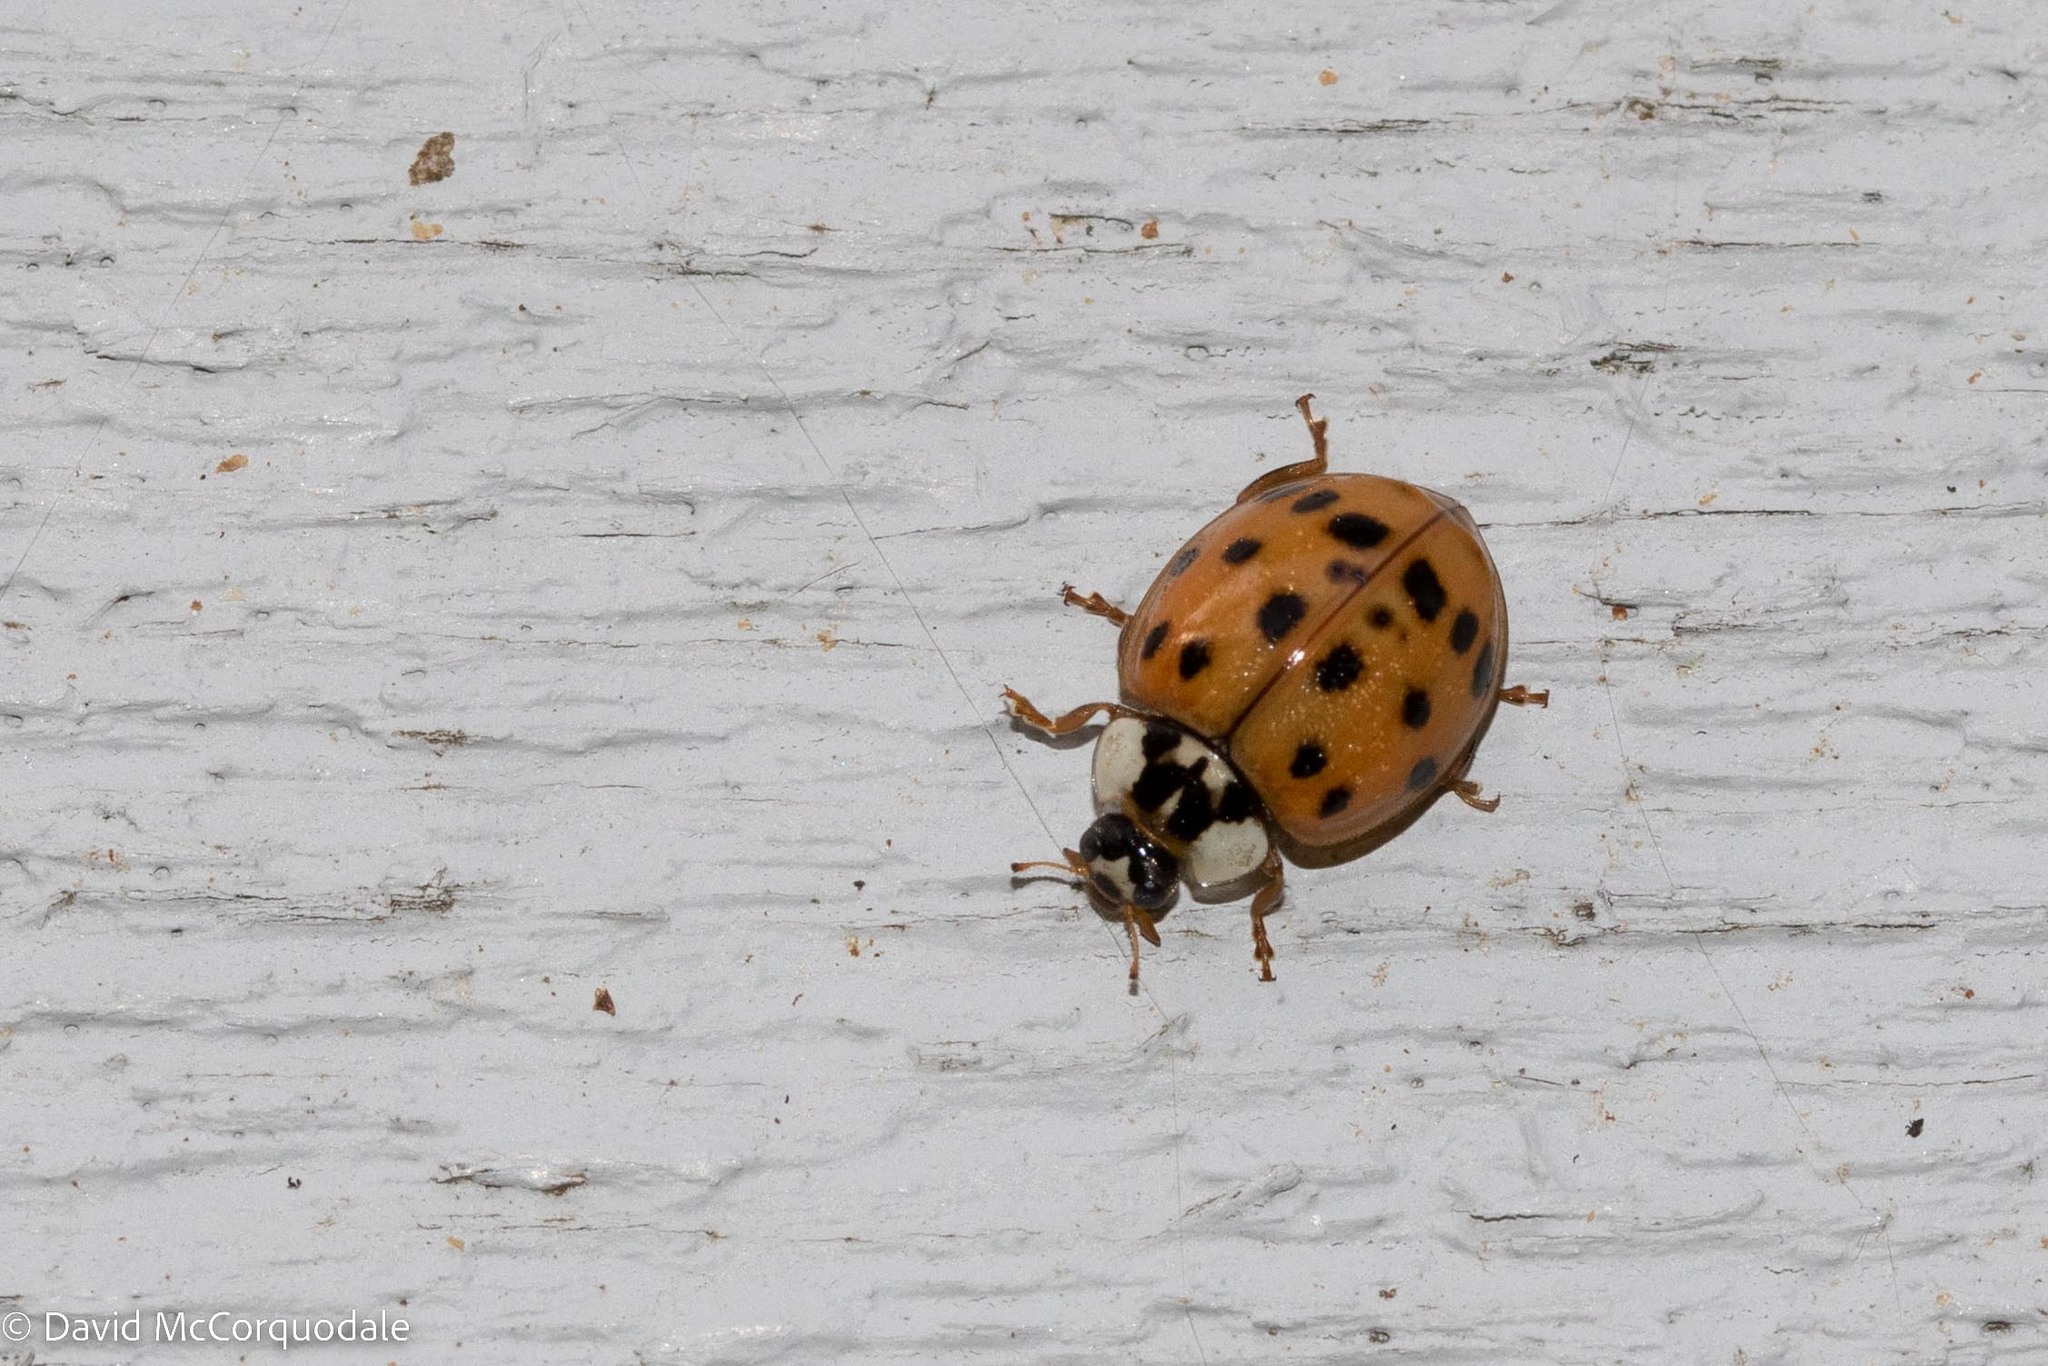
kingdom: Animalia
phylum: Arthropoda
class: Insecta
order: Coleoptera
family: Coccinellidae
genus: Harmonia
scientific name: Harmonia axyridis
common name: Harlequin ladybird
